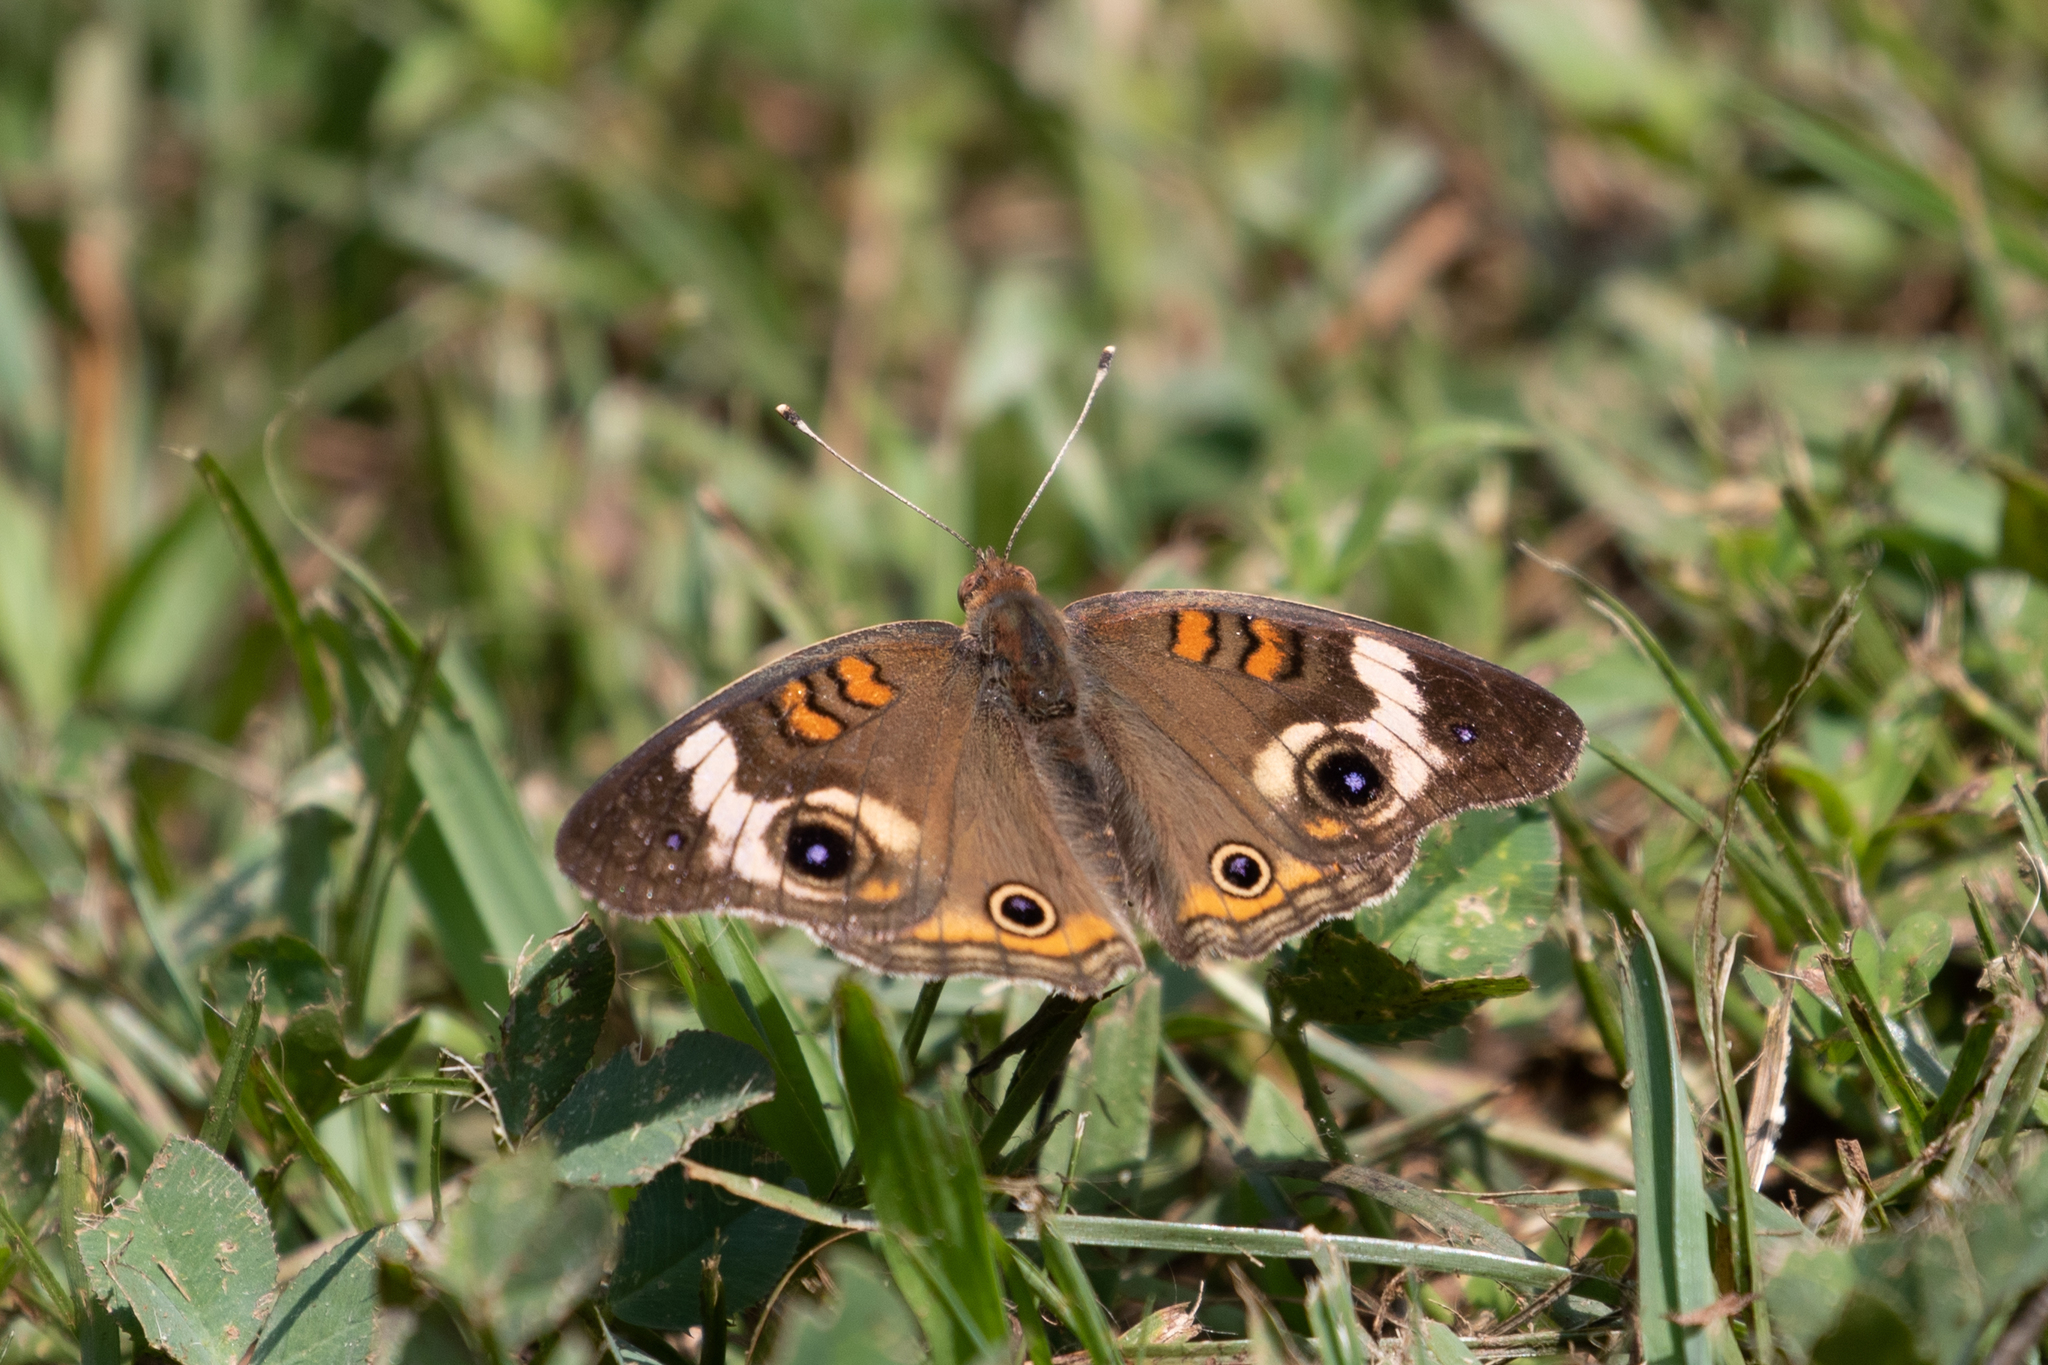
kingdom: Animalia
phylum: Arthropoda
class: Insecta
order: Lepidoptera
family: Nymphalidae
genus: Junonia
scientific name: Junonia coenia
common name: Common buckeye
